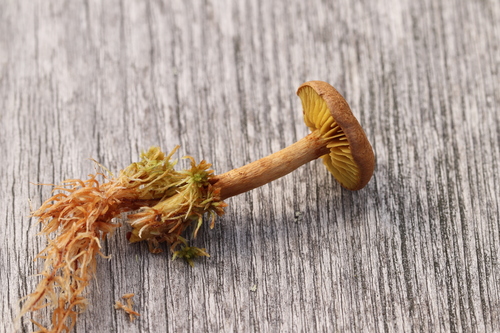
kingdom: Fungi
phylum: Basidiomycota
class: Agaricomycetes
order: Agaricales
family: Cortinariaceae
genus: Cortinarius
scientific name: Cortinarius chrysolitus
